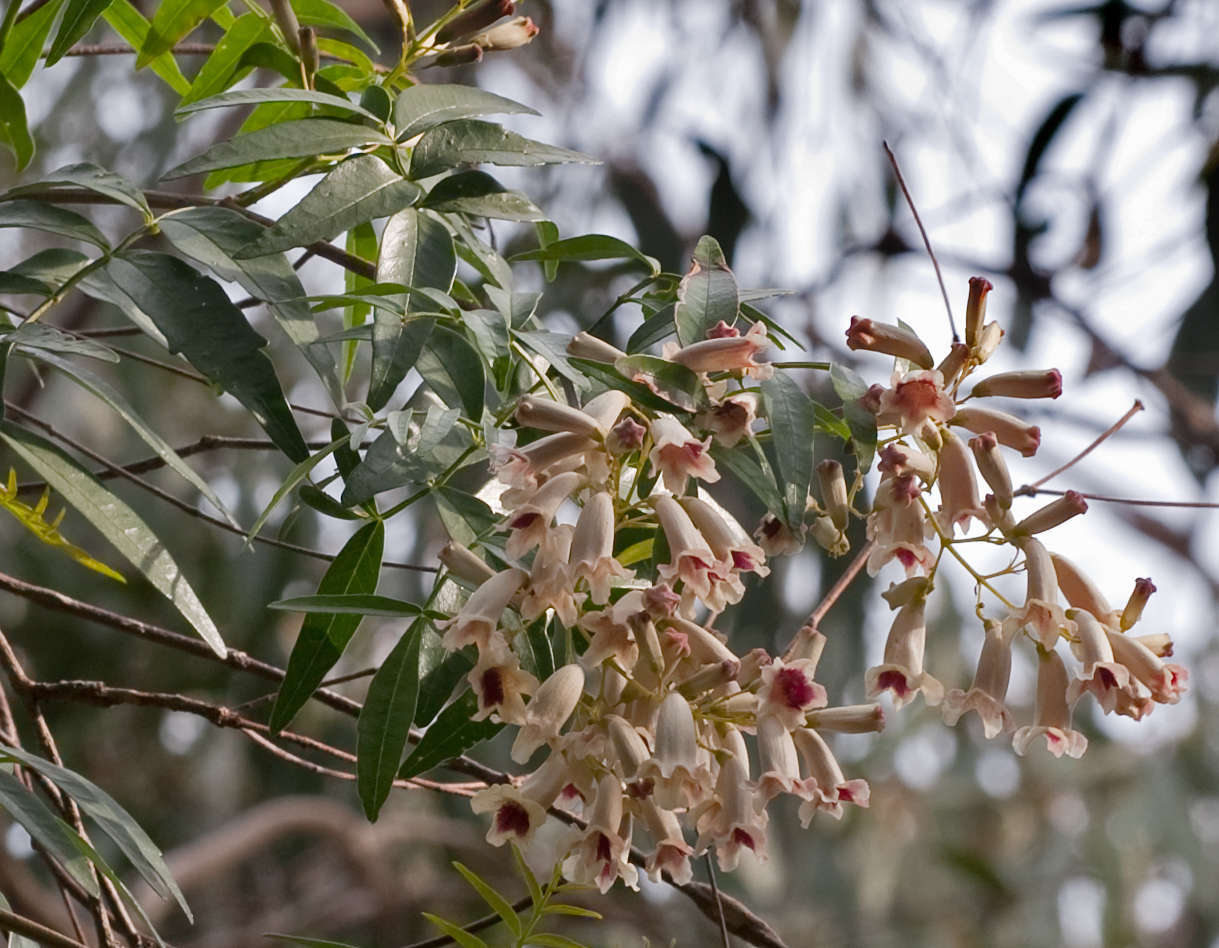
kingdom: Plantae
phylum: Tracheophyta
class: Magnoliopsida
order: Lamiales
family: Bignoniaceae
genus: Pandorea
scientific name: Pandorea pandorana
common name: Wonga-wonga-vine
